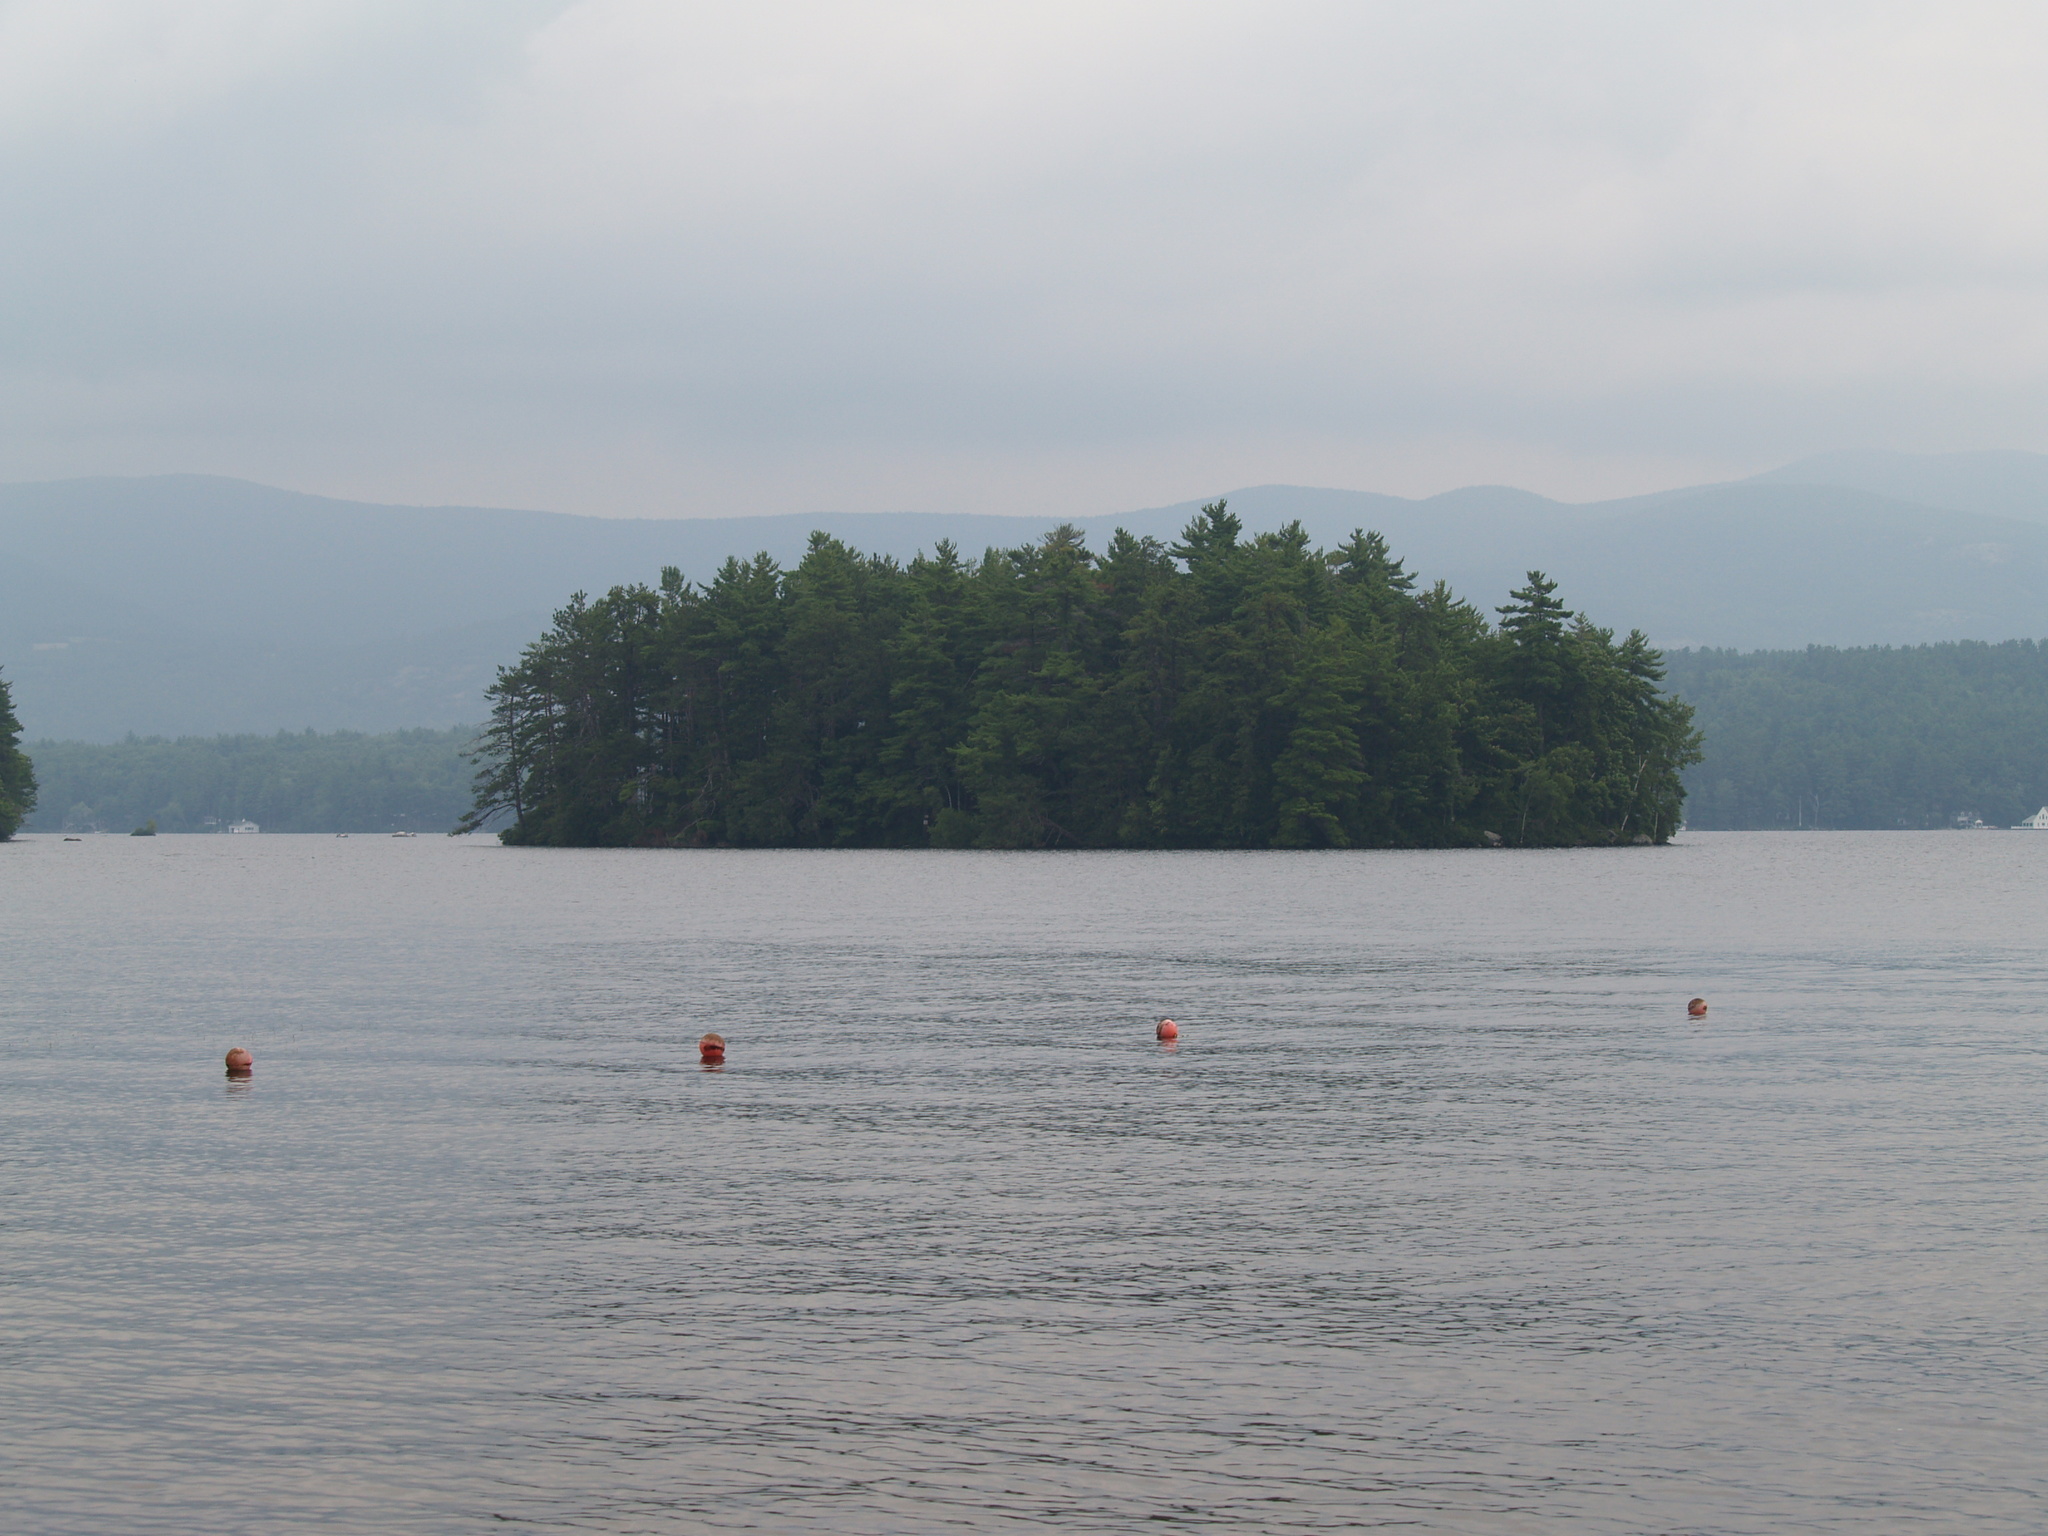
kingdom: Plantae
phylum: Tracheophyta
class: Pinopsida
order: Pinales
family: Pinaceae
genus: Pinus
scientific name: Pinus strobus
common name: Weymouth pine
